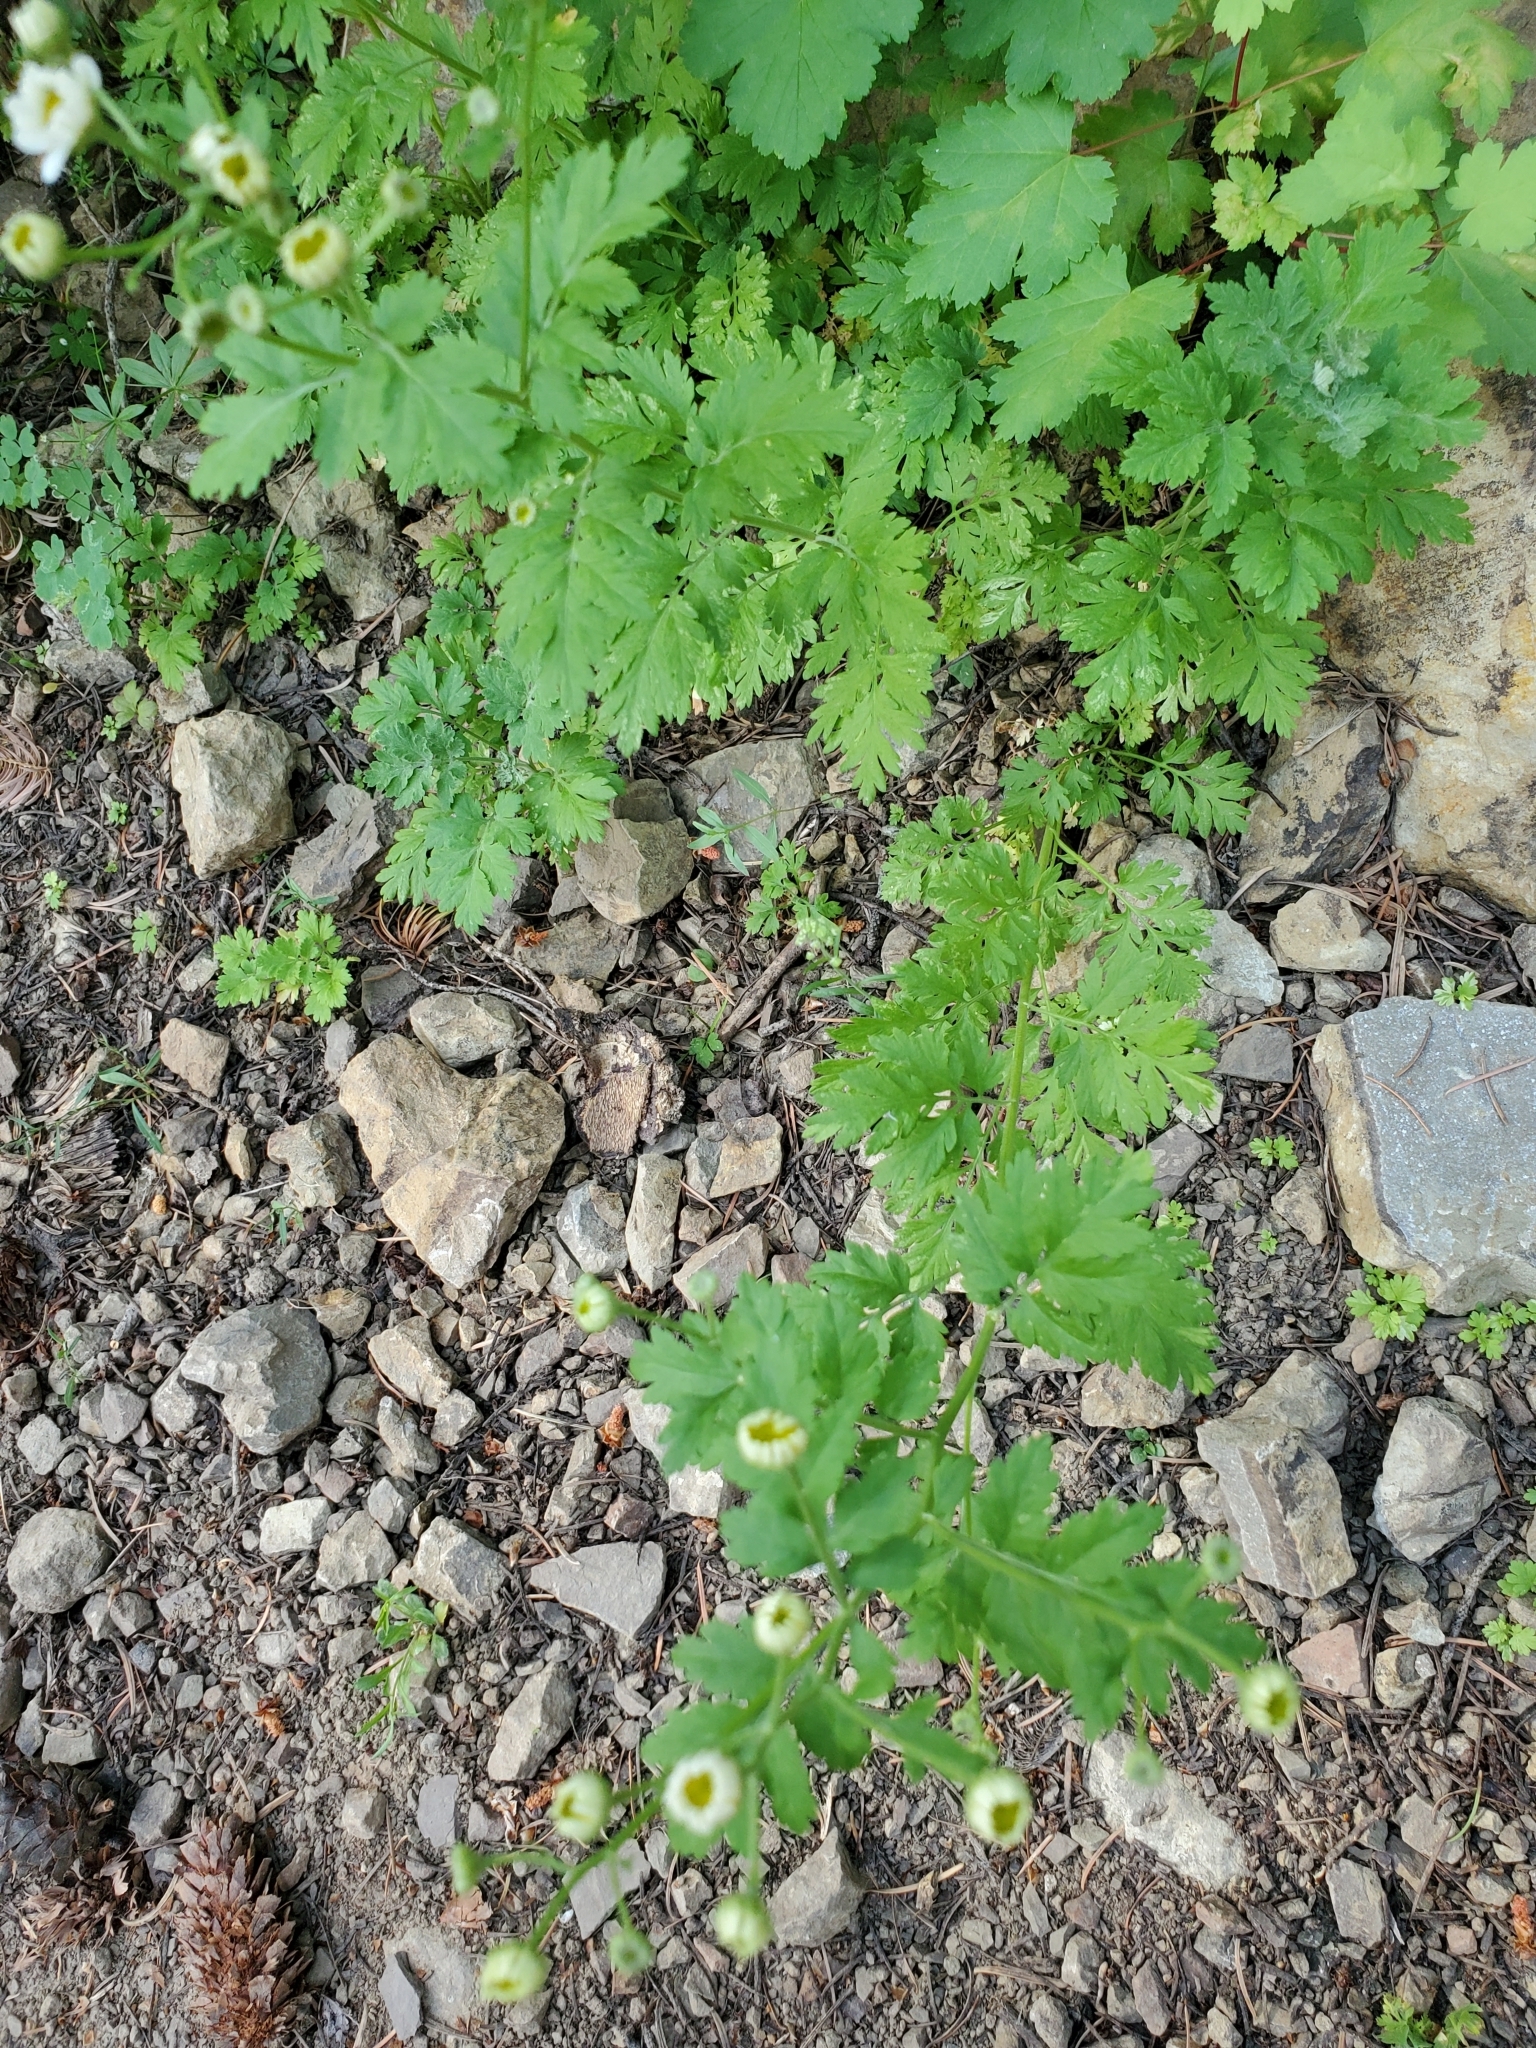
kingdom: Plantae
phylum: Tracheophyta
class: Magnoliopsida
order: Asterales
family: Asteraceae
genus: Tanacetum
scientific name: Tanacetum parthenium
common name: Feverfew
